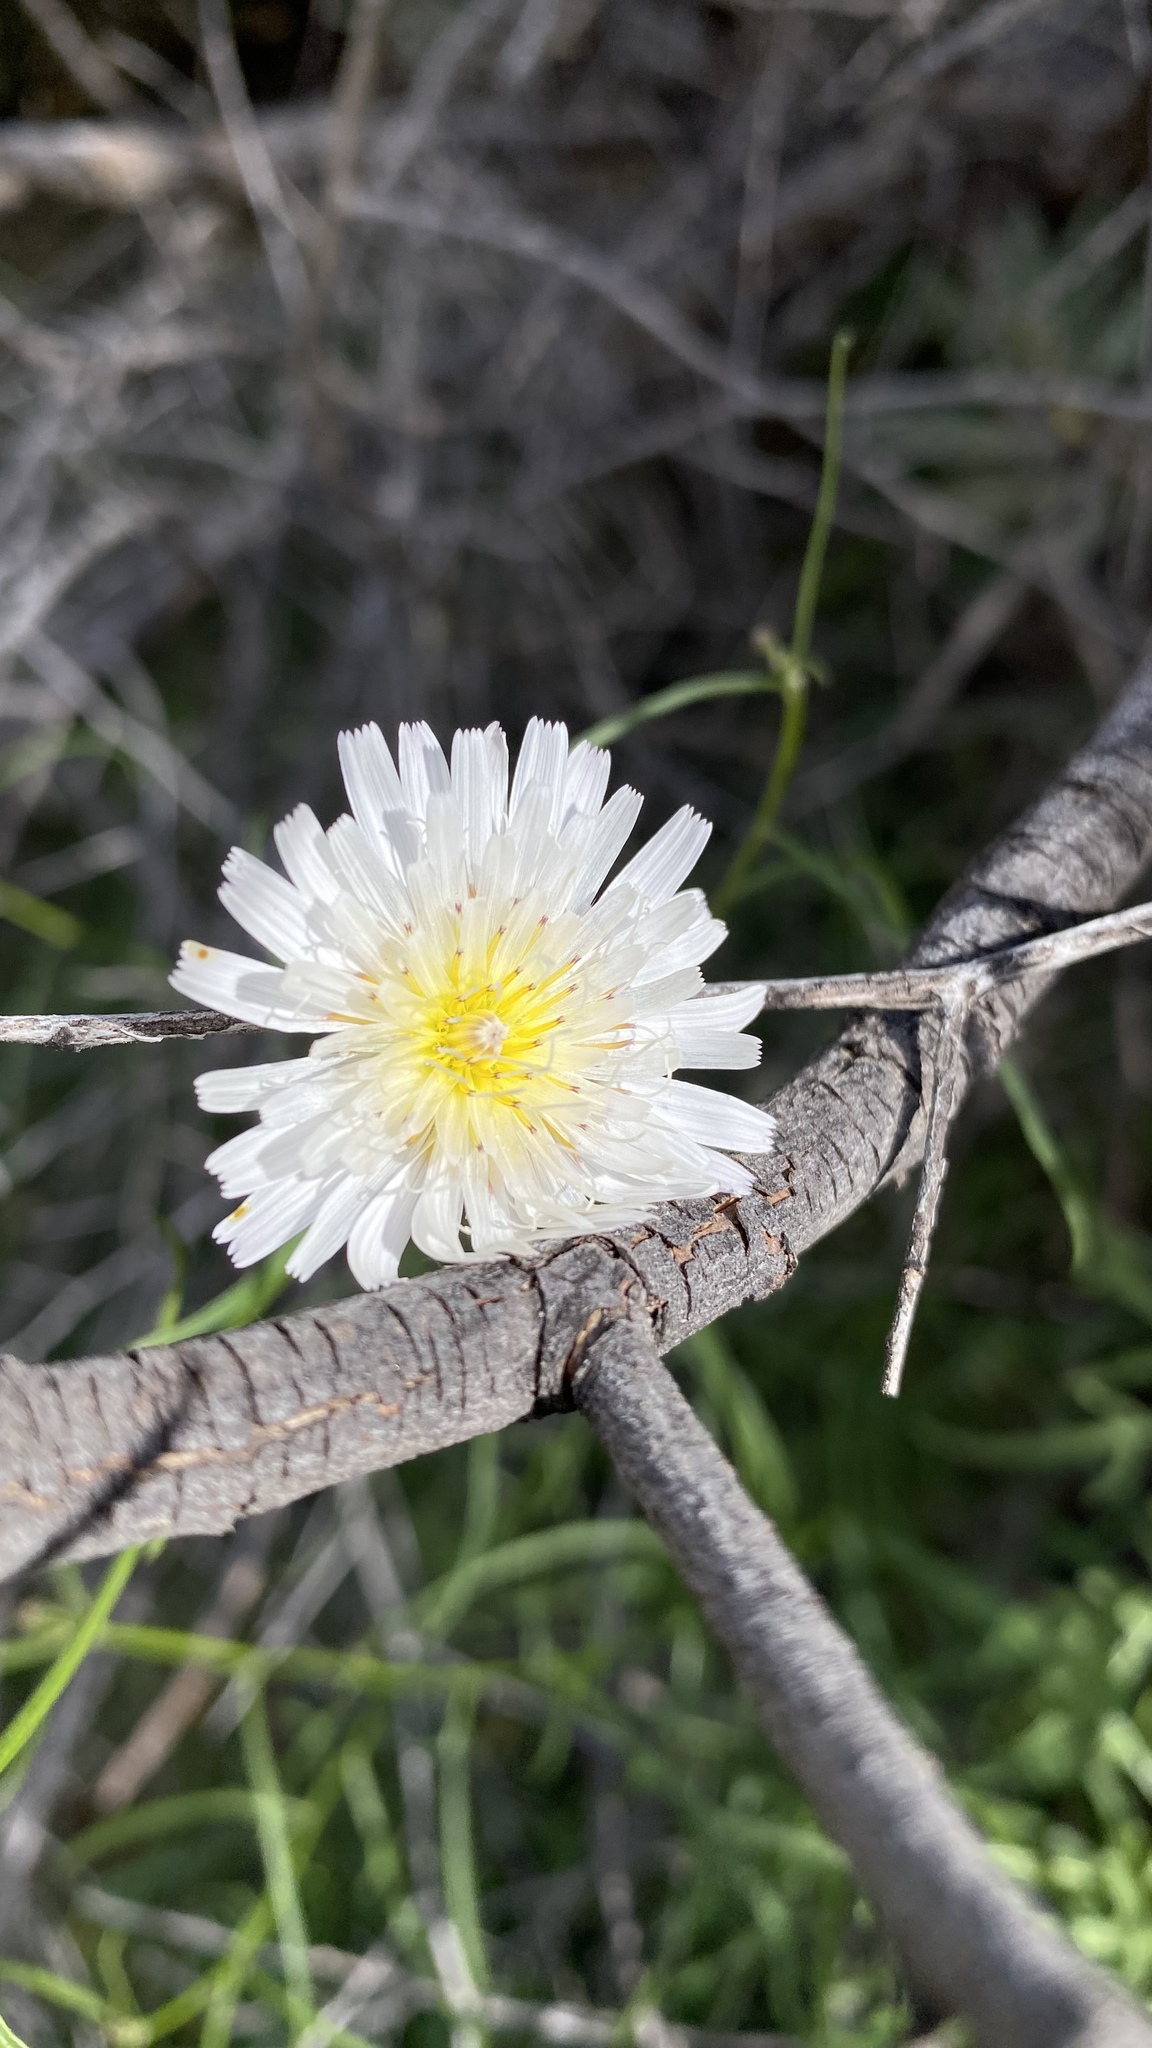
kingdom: Plantae
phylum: Tracheophyta
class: Magnoliopsida
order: Asterales
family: Asteraceae
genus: Malacothrix
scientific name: Malacothrix saxatilis
